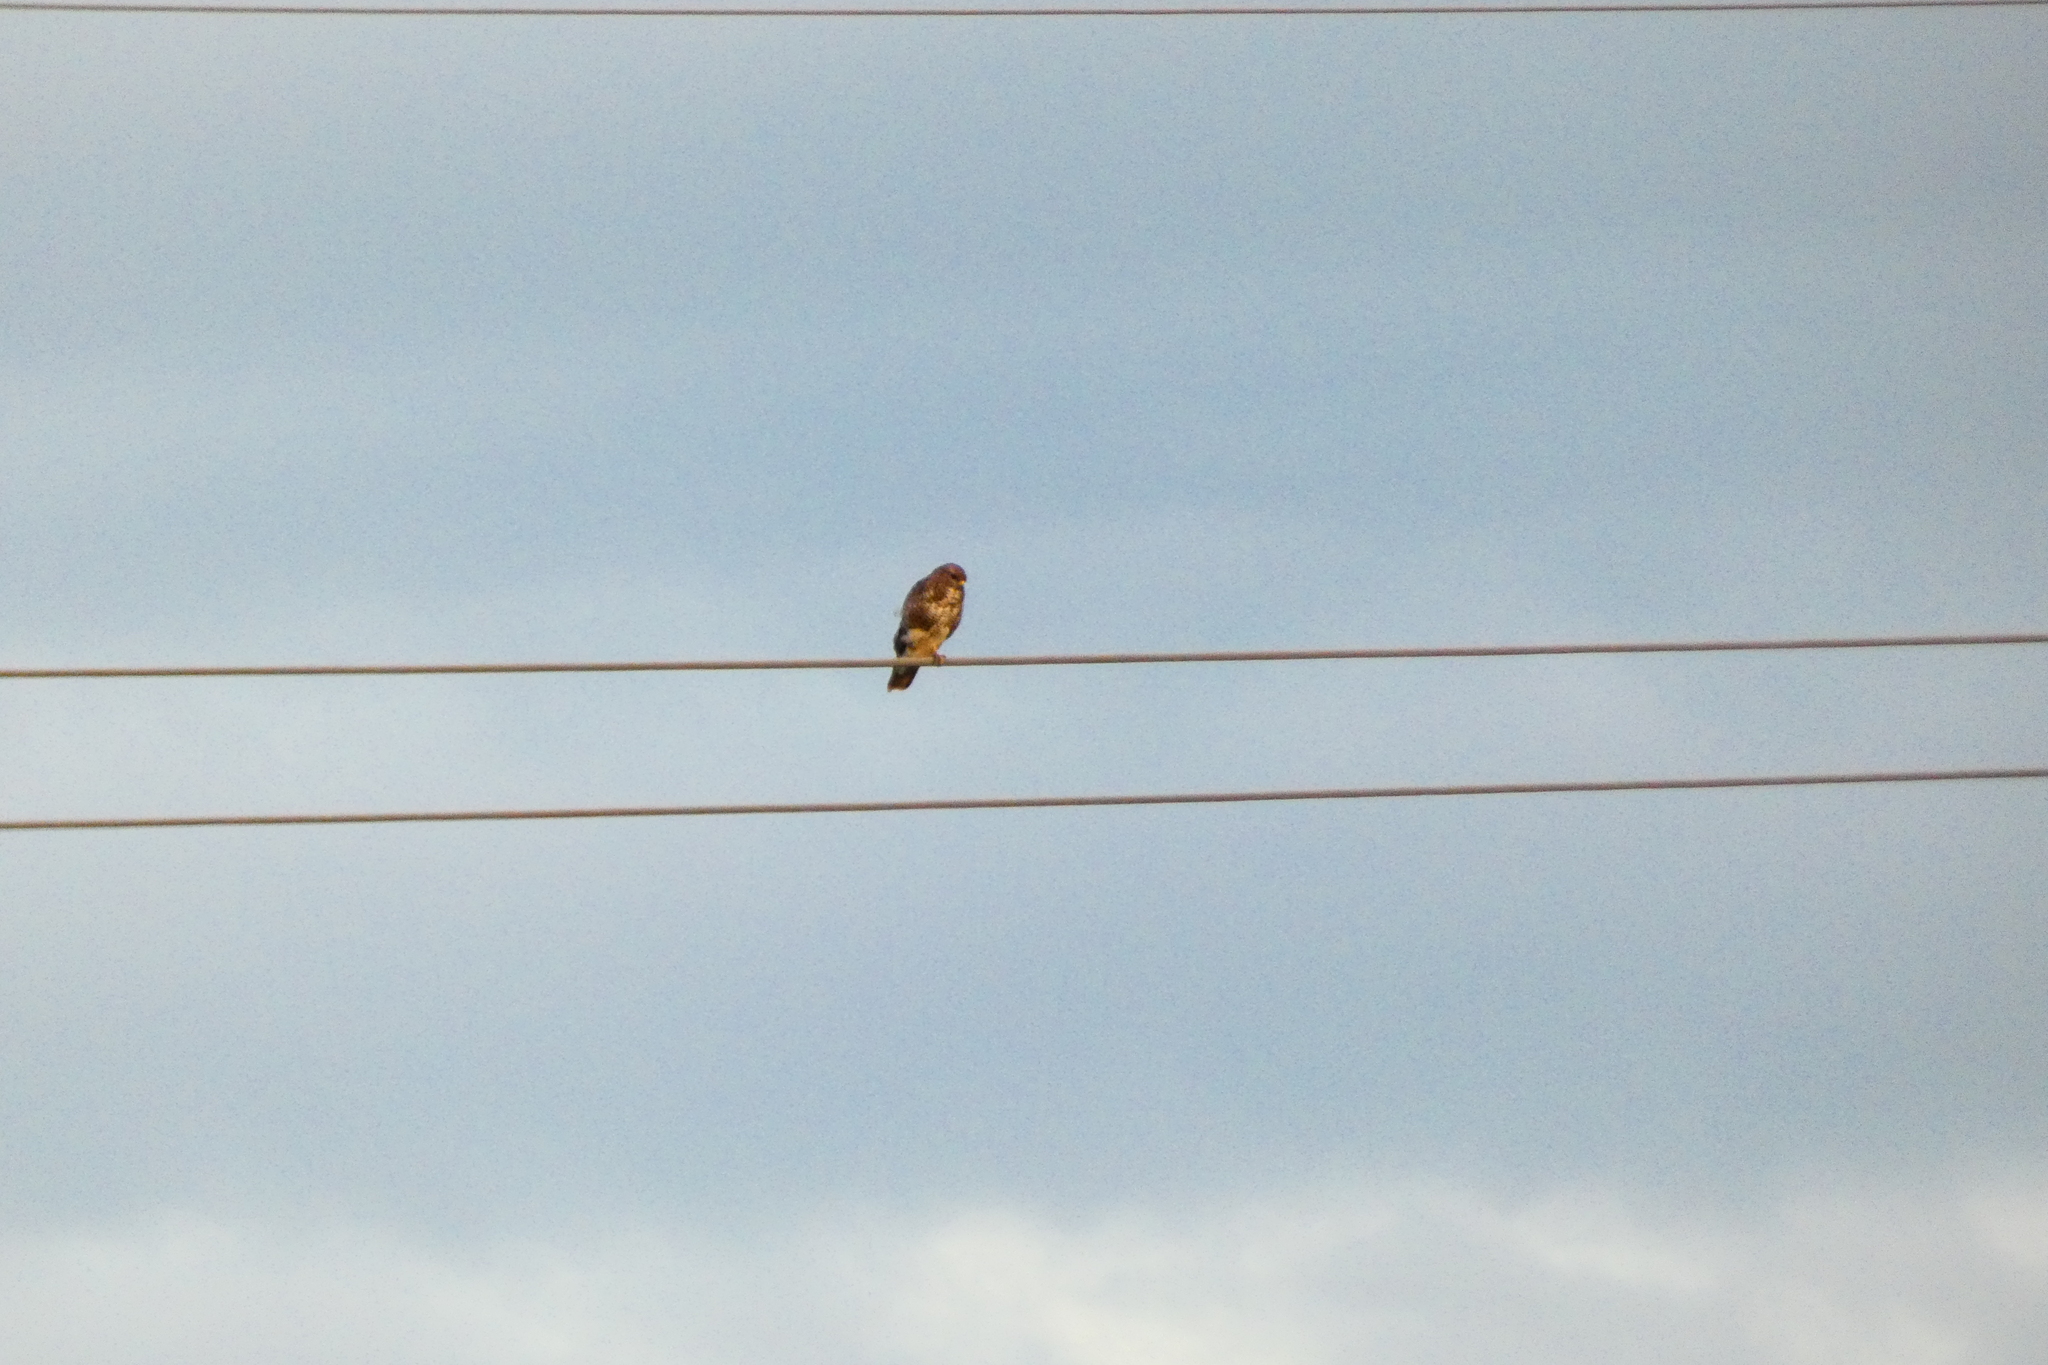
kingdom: Animalia
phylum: Chordata
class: Aves
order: Accipitriformes
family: Accipitridae
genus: Buteo
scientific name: Buteo buteo
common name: Common buzzard
